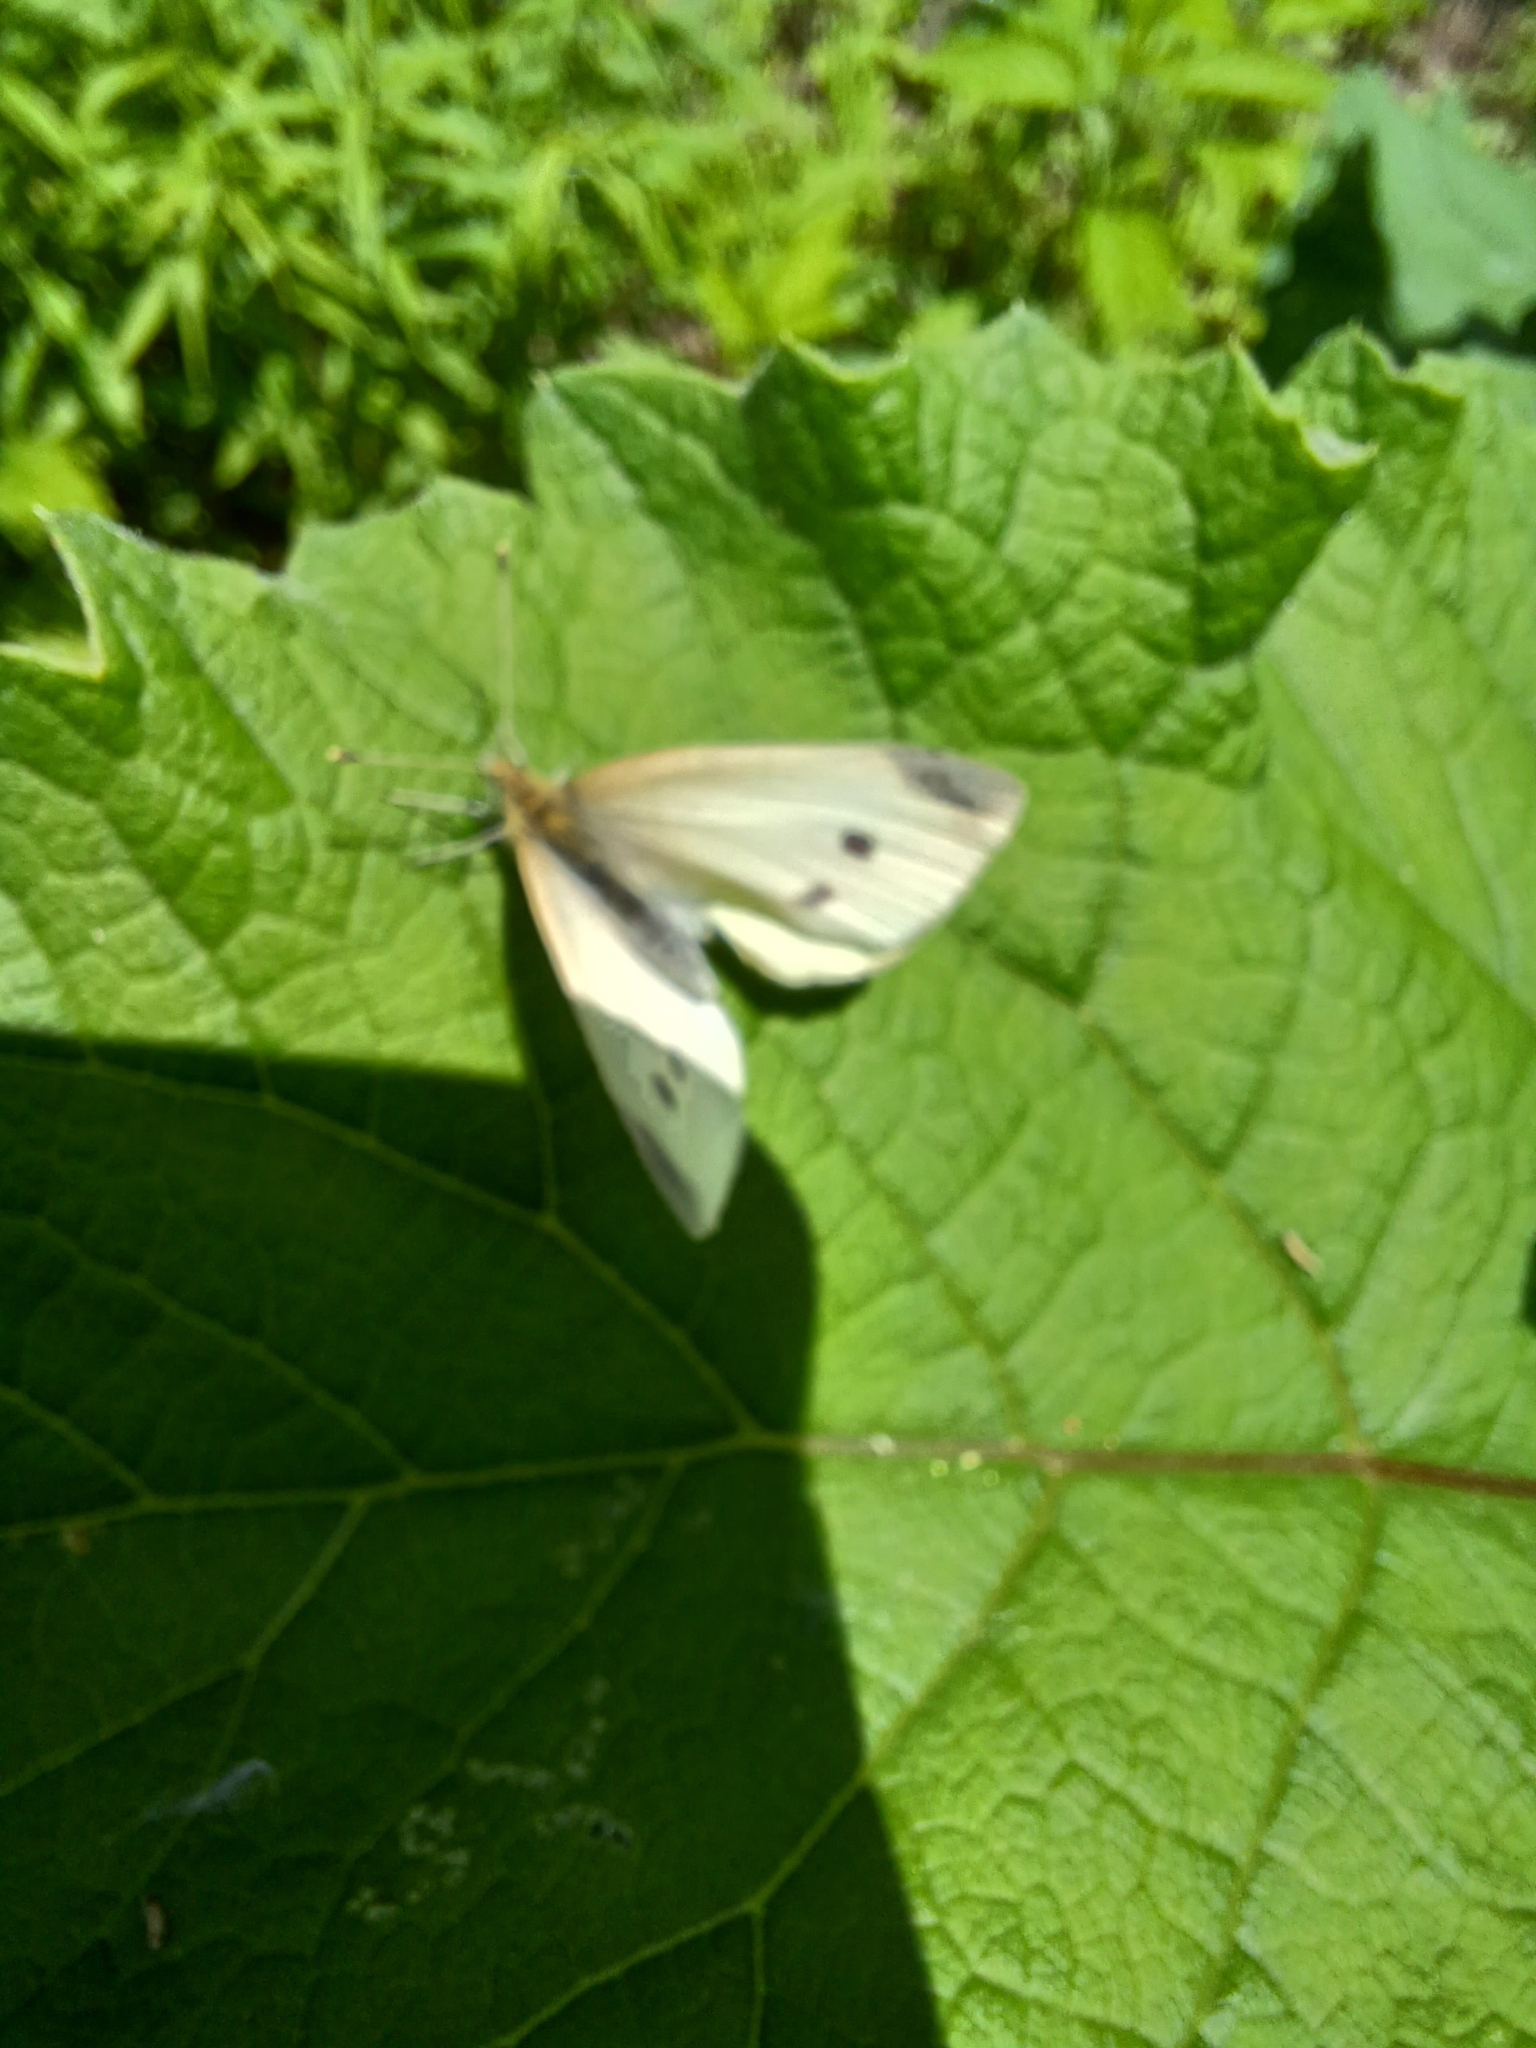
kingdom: Animalia
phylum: Arthropoda
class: Insecta
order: Lepidoptera
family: Pieridae
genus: Pieris
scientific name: Pieris rapae
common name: Small white
